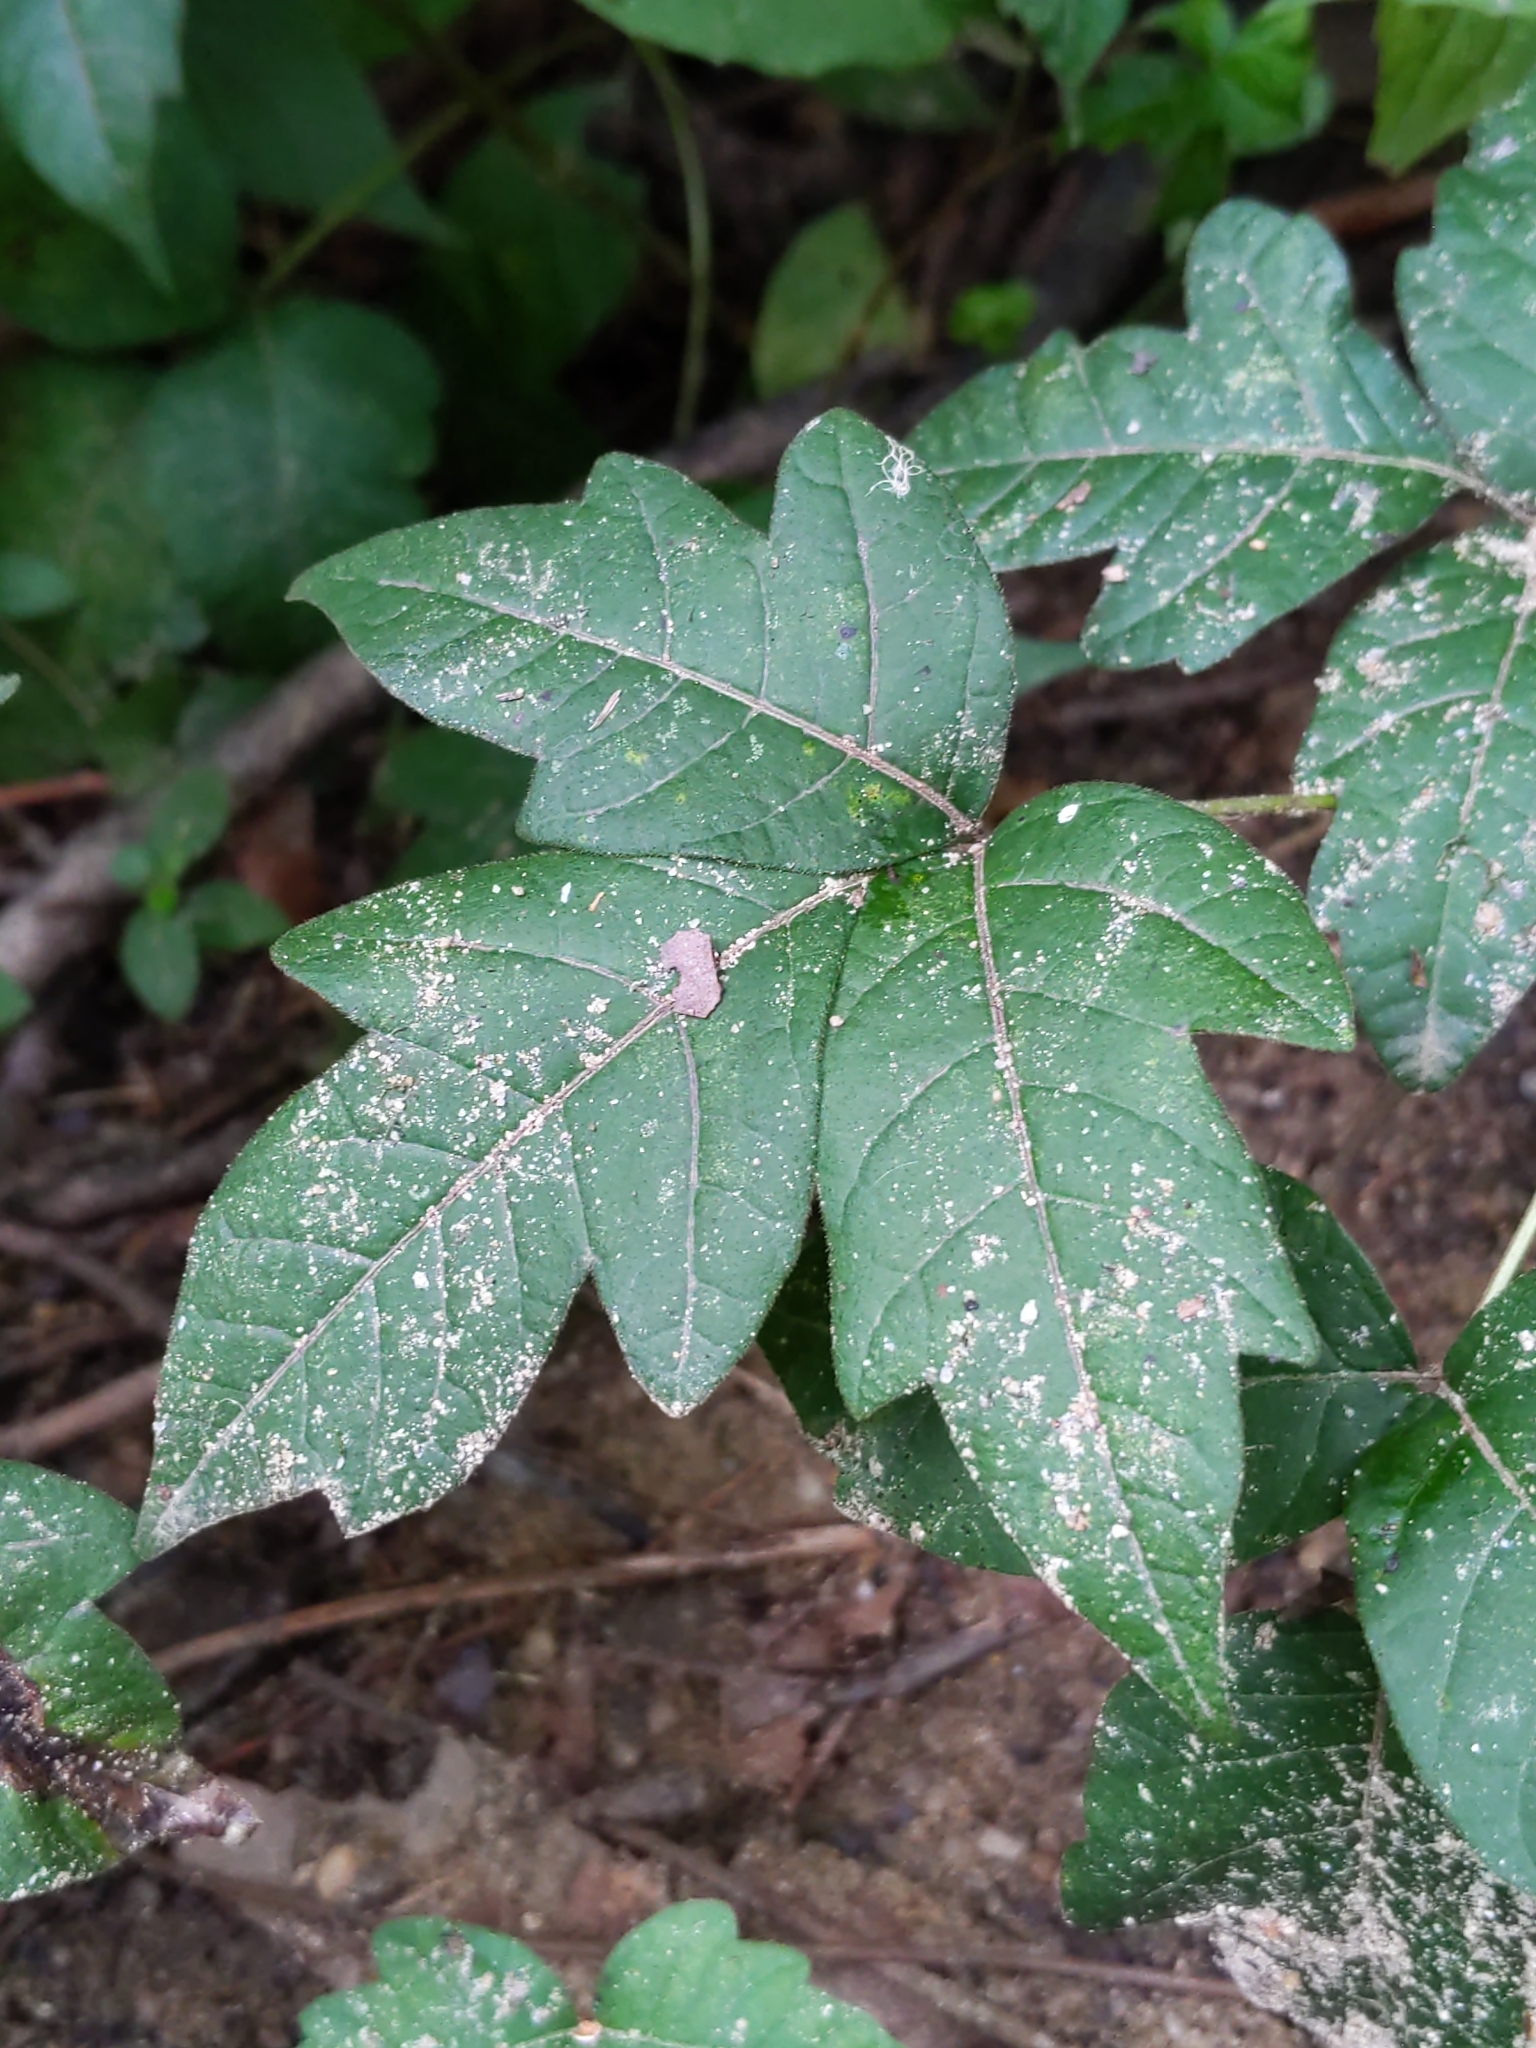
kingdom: Plantae
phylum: Tracheophyta
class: Magnoliopsida
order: Sapindales
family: Anacardiaceae
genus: Toxicodendron
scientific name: Toxicodendron radicans
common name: Poison ivy
